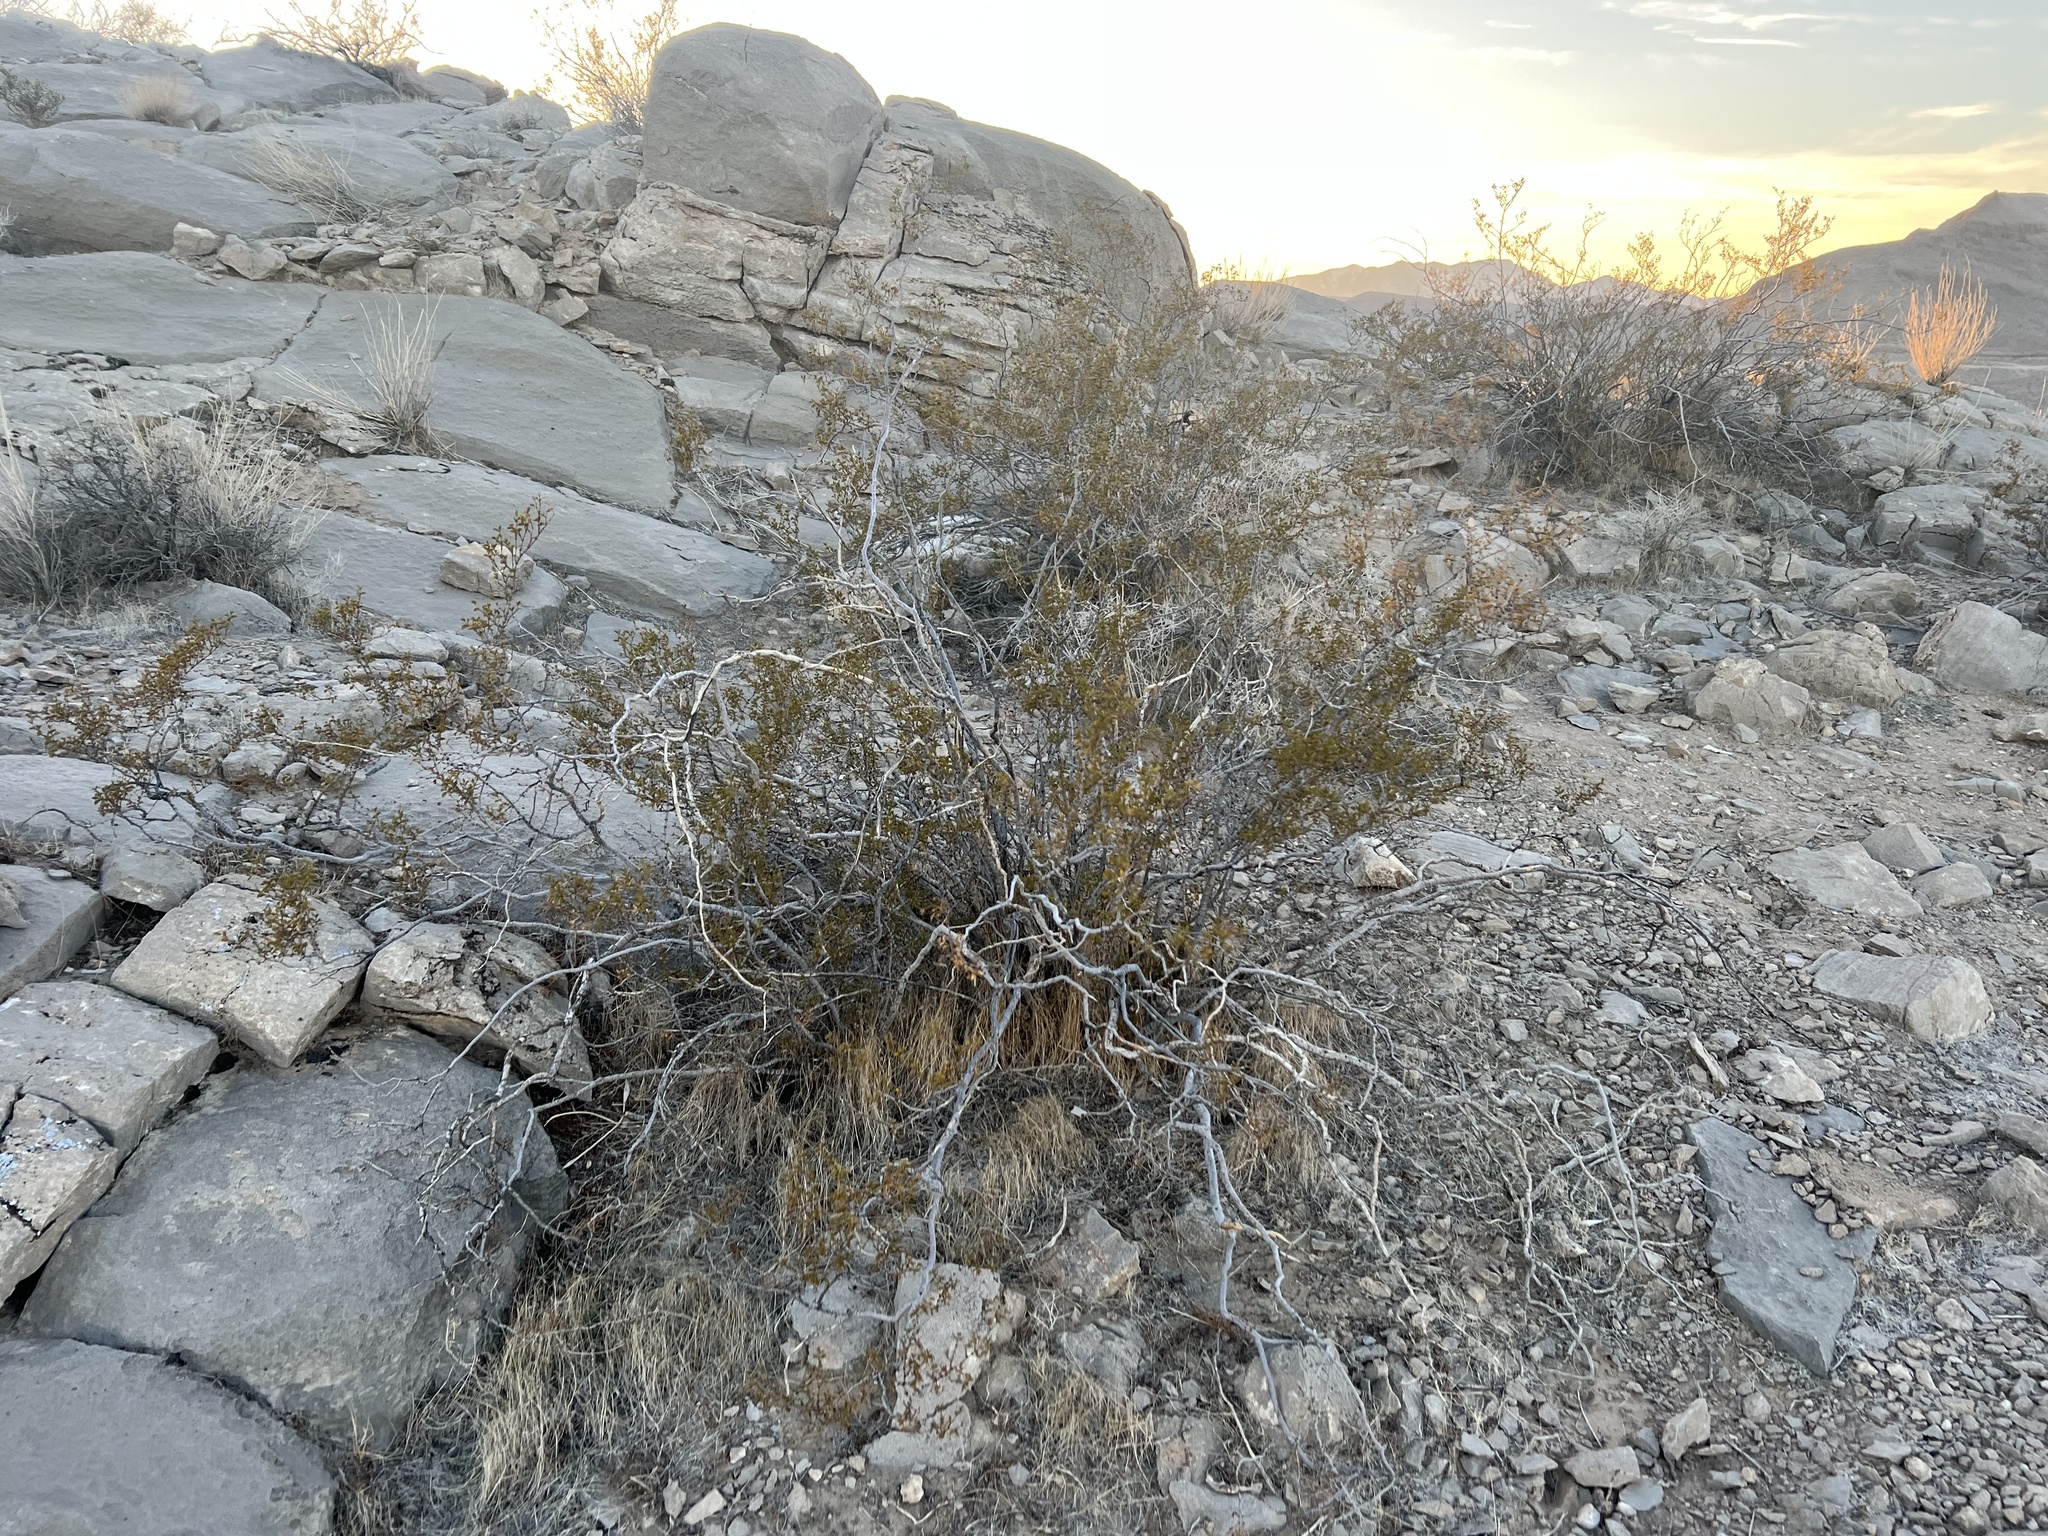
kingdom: Plantae
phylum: Tracheophyta
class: Magnoliopsida
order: Zygophyllales
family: Zygophyllaceae
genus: Larrea
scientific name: Larrea tridentata
